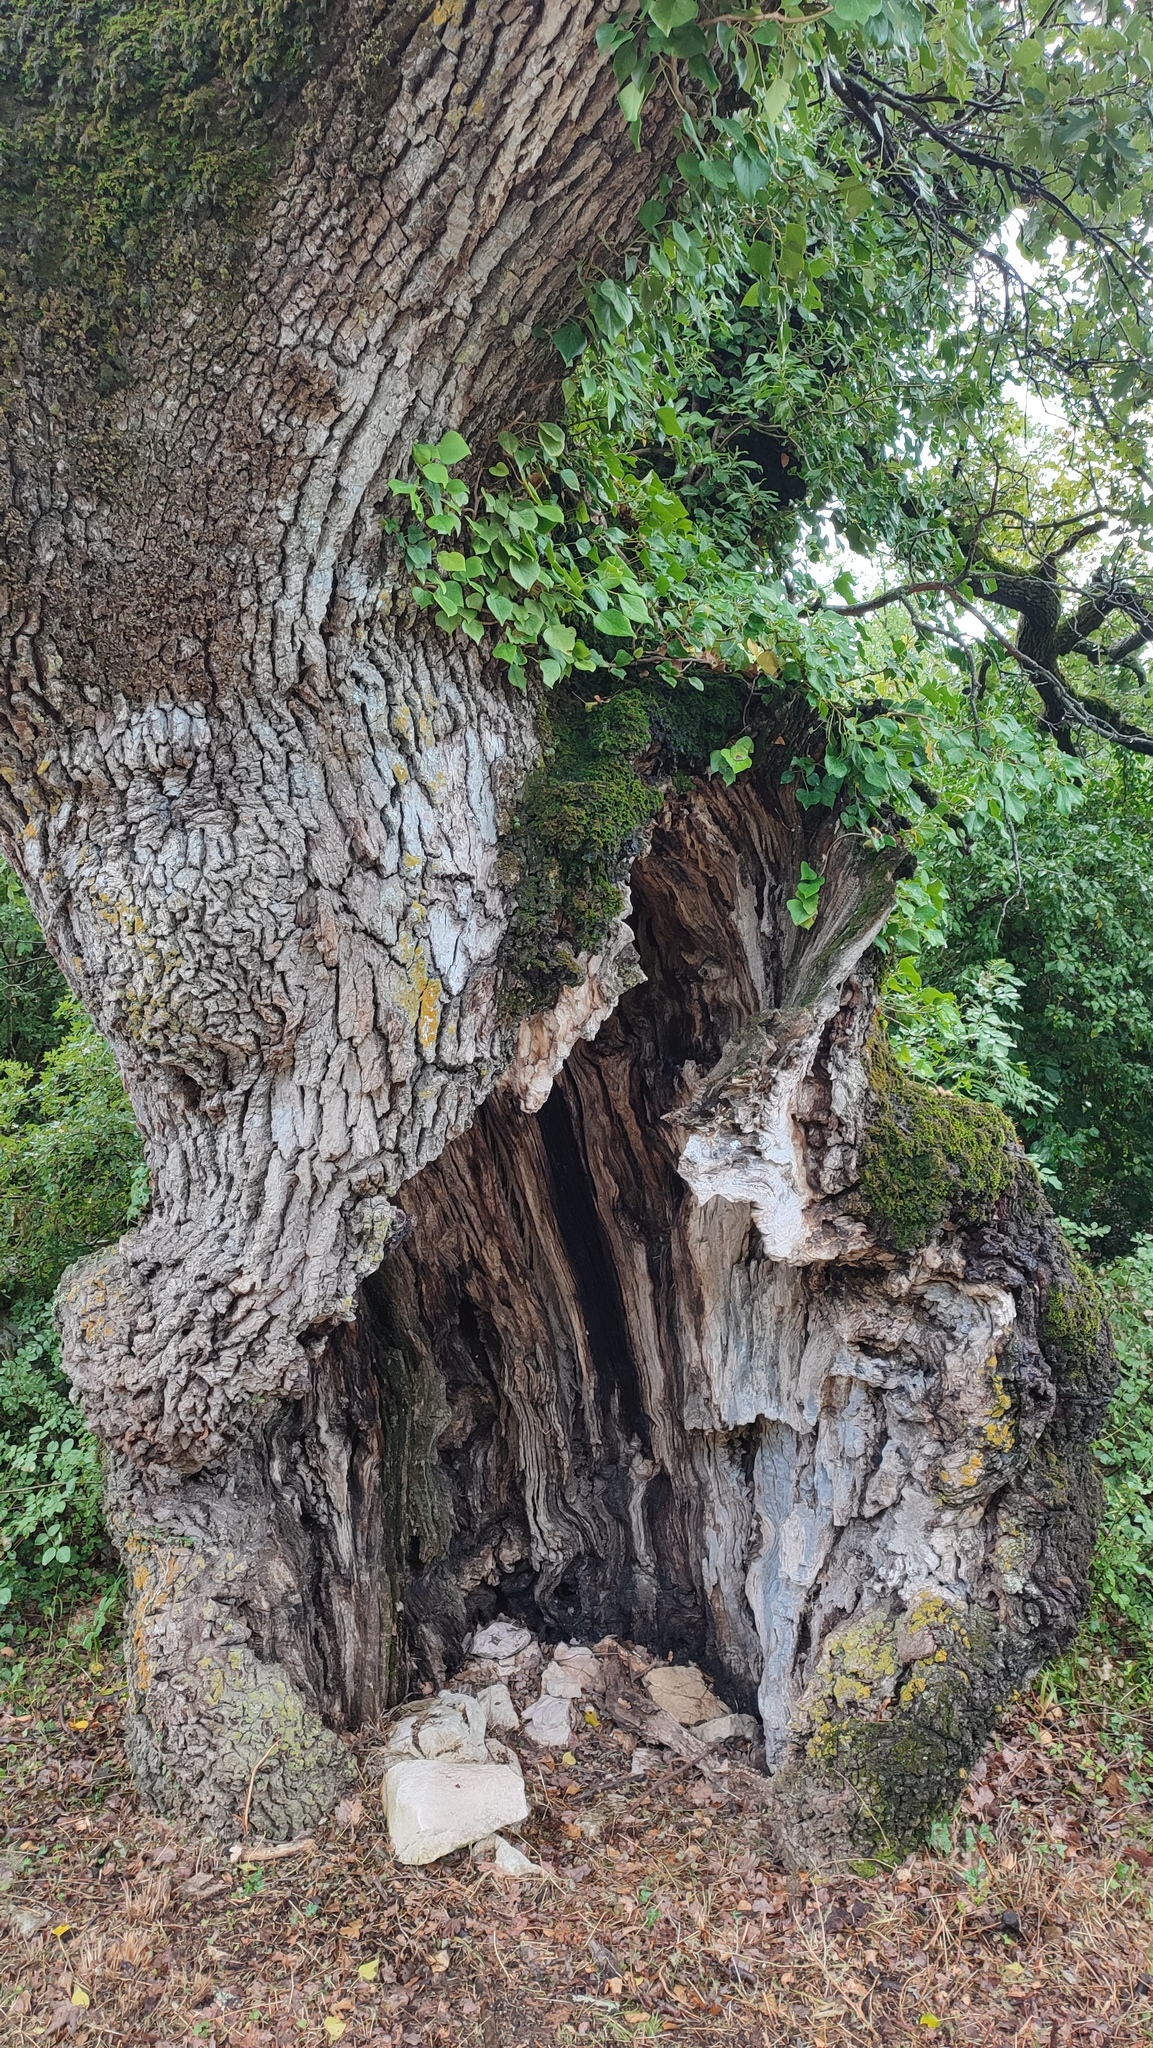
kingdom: Plantae
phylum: Tracheophyta
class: Magnoliopsida
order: Fagales
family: Fagaceae
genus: Quercus
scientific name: Quercus pubescens
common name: Downy oak
